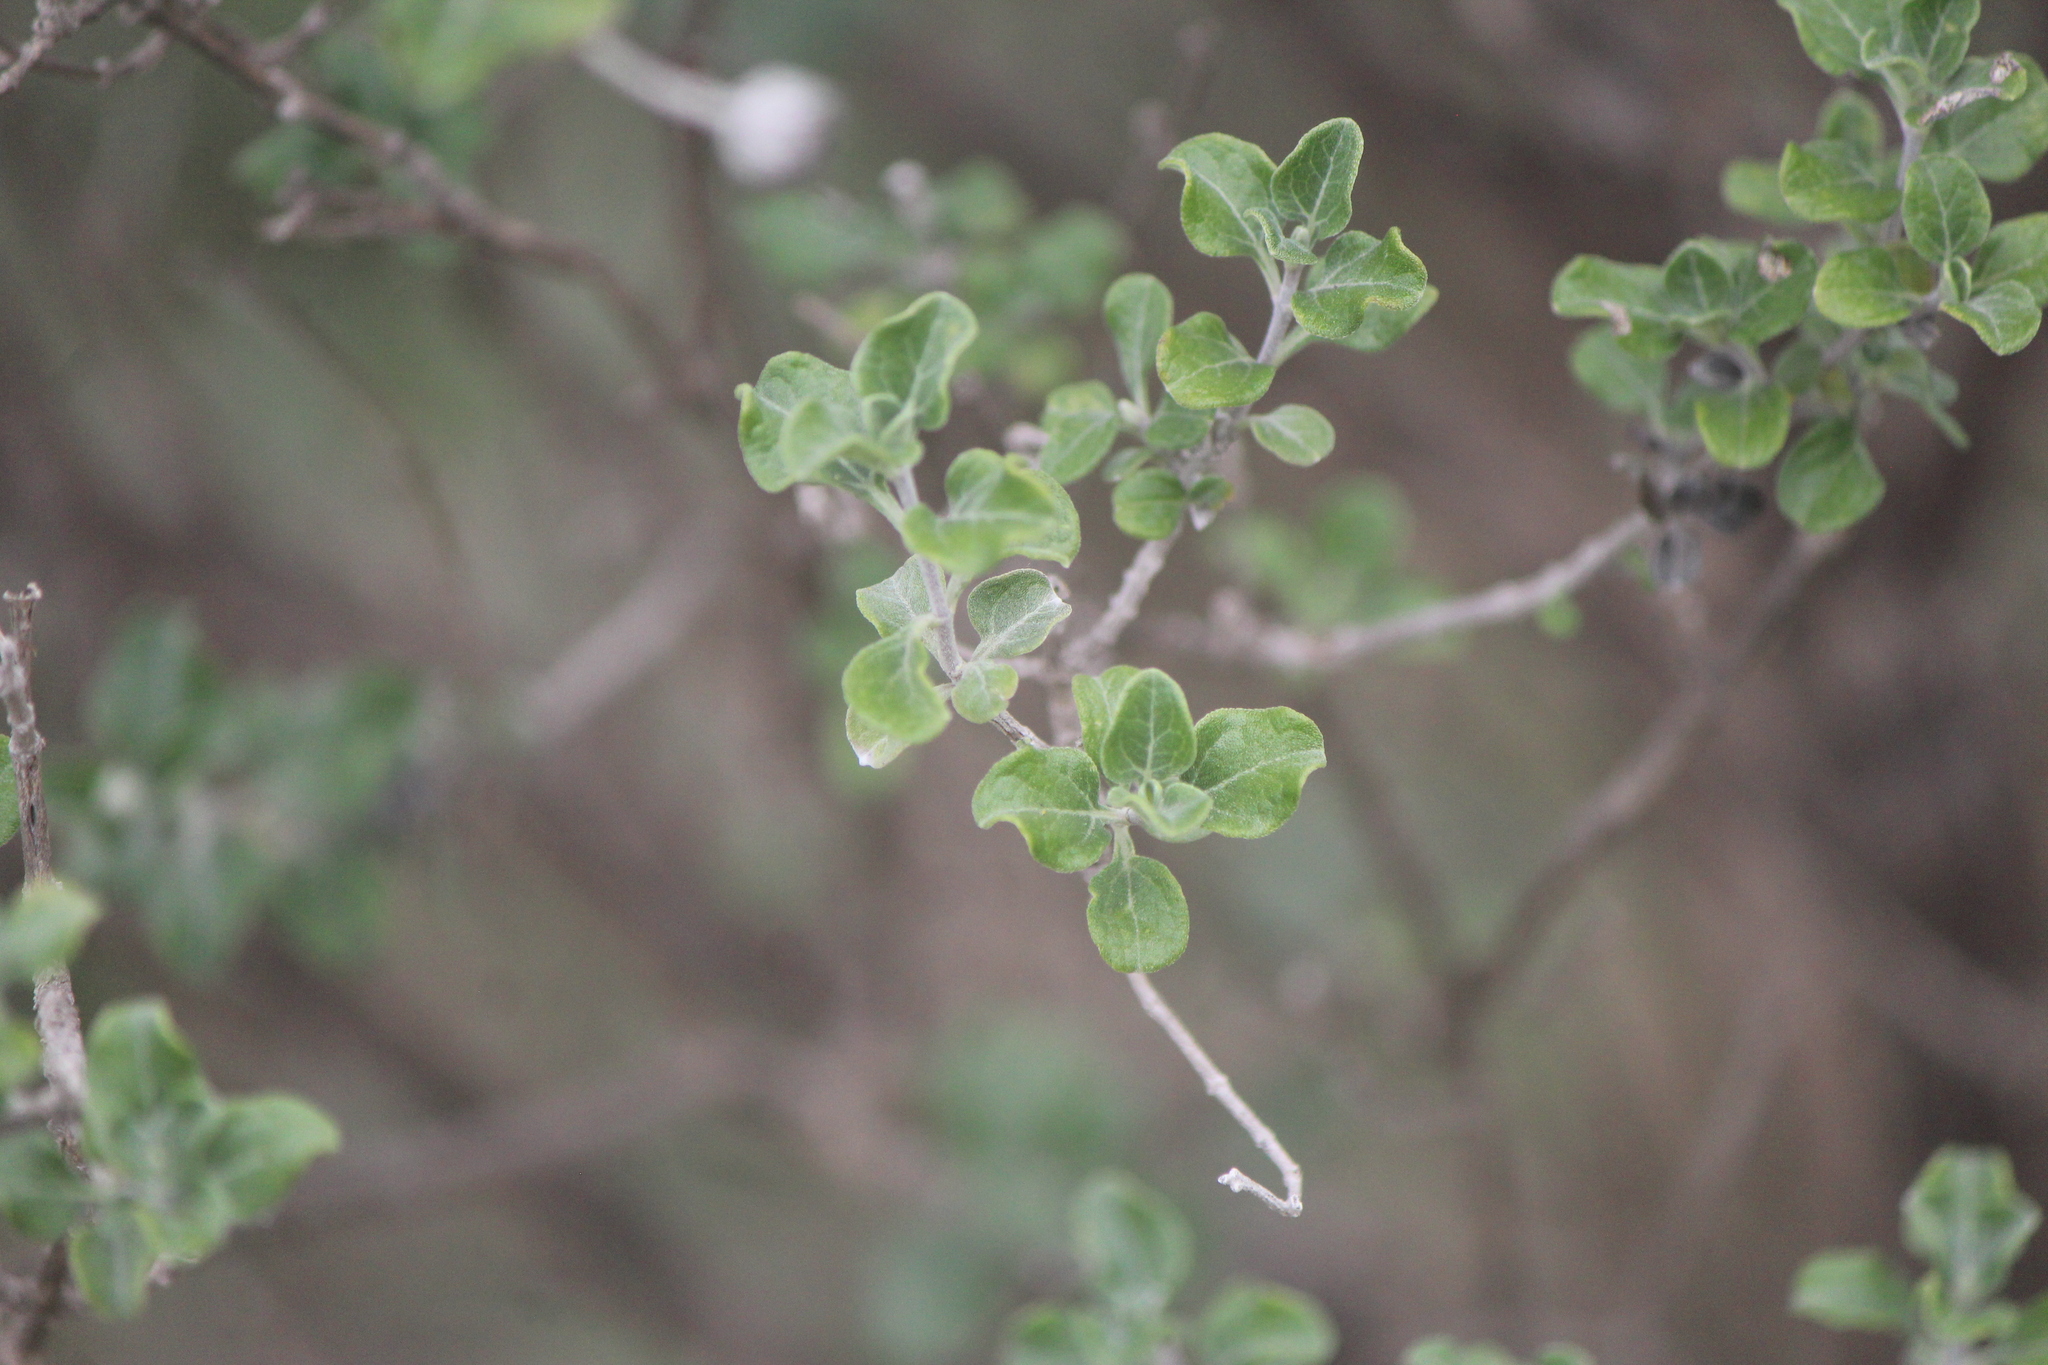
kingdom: Plantae
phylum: Tracheophyta
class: Magnoliopsida
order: Asterales
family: Asteraceae
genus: Calanticaria
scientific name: Calanticaria bicolor
